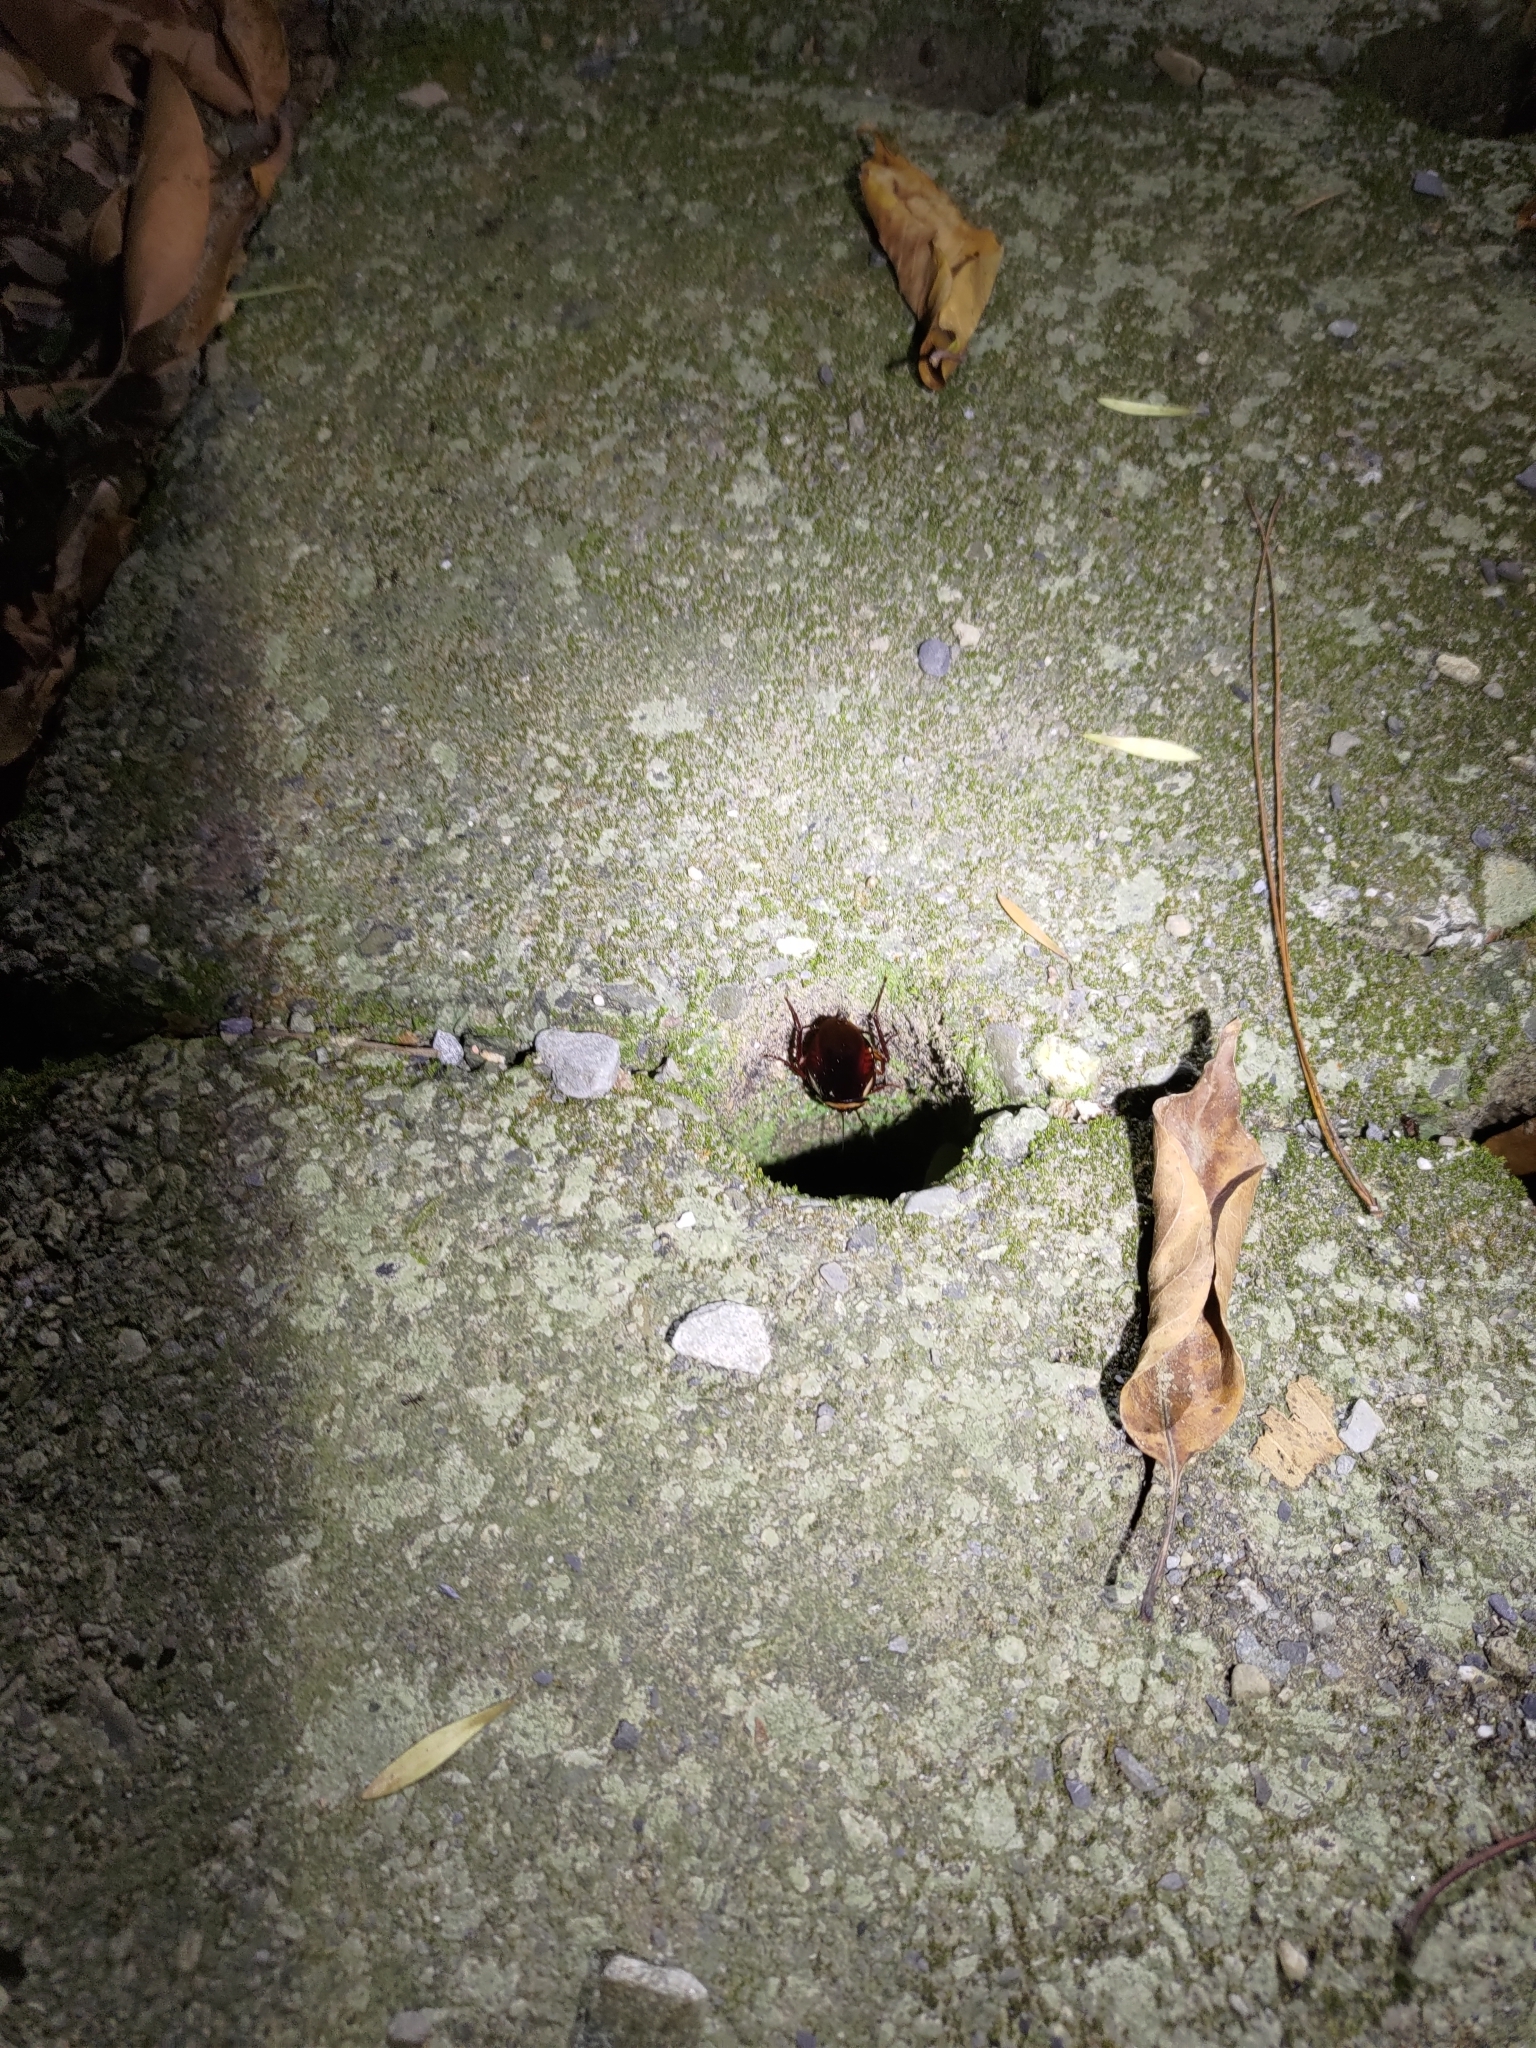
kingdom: Animalia
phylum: Arthropoda
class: Insecta
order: Blattodea
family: Blattidae
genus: Periplaneta
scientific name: Periplaneta australasiae
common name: Australian cockroach
